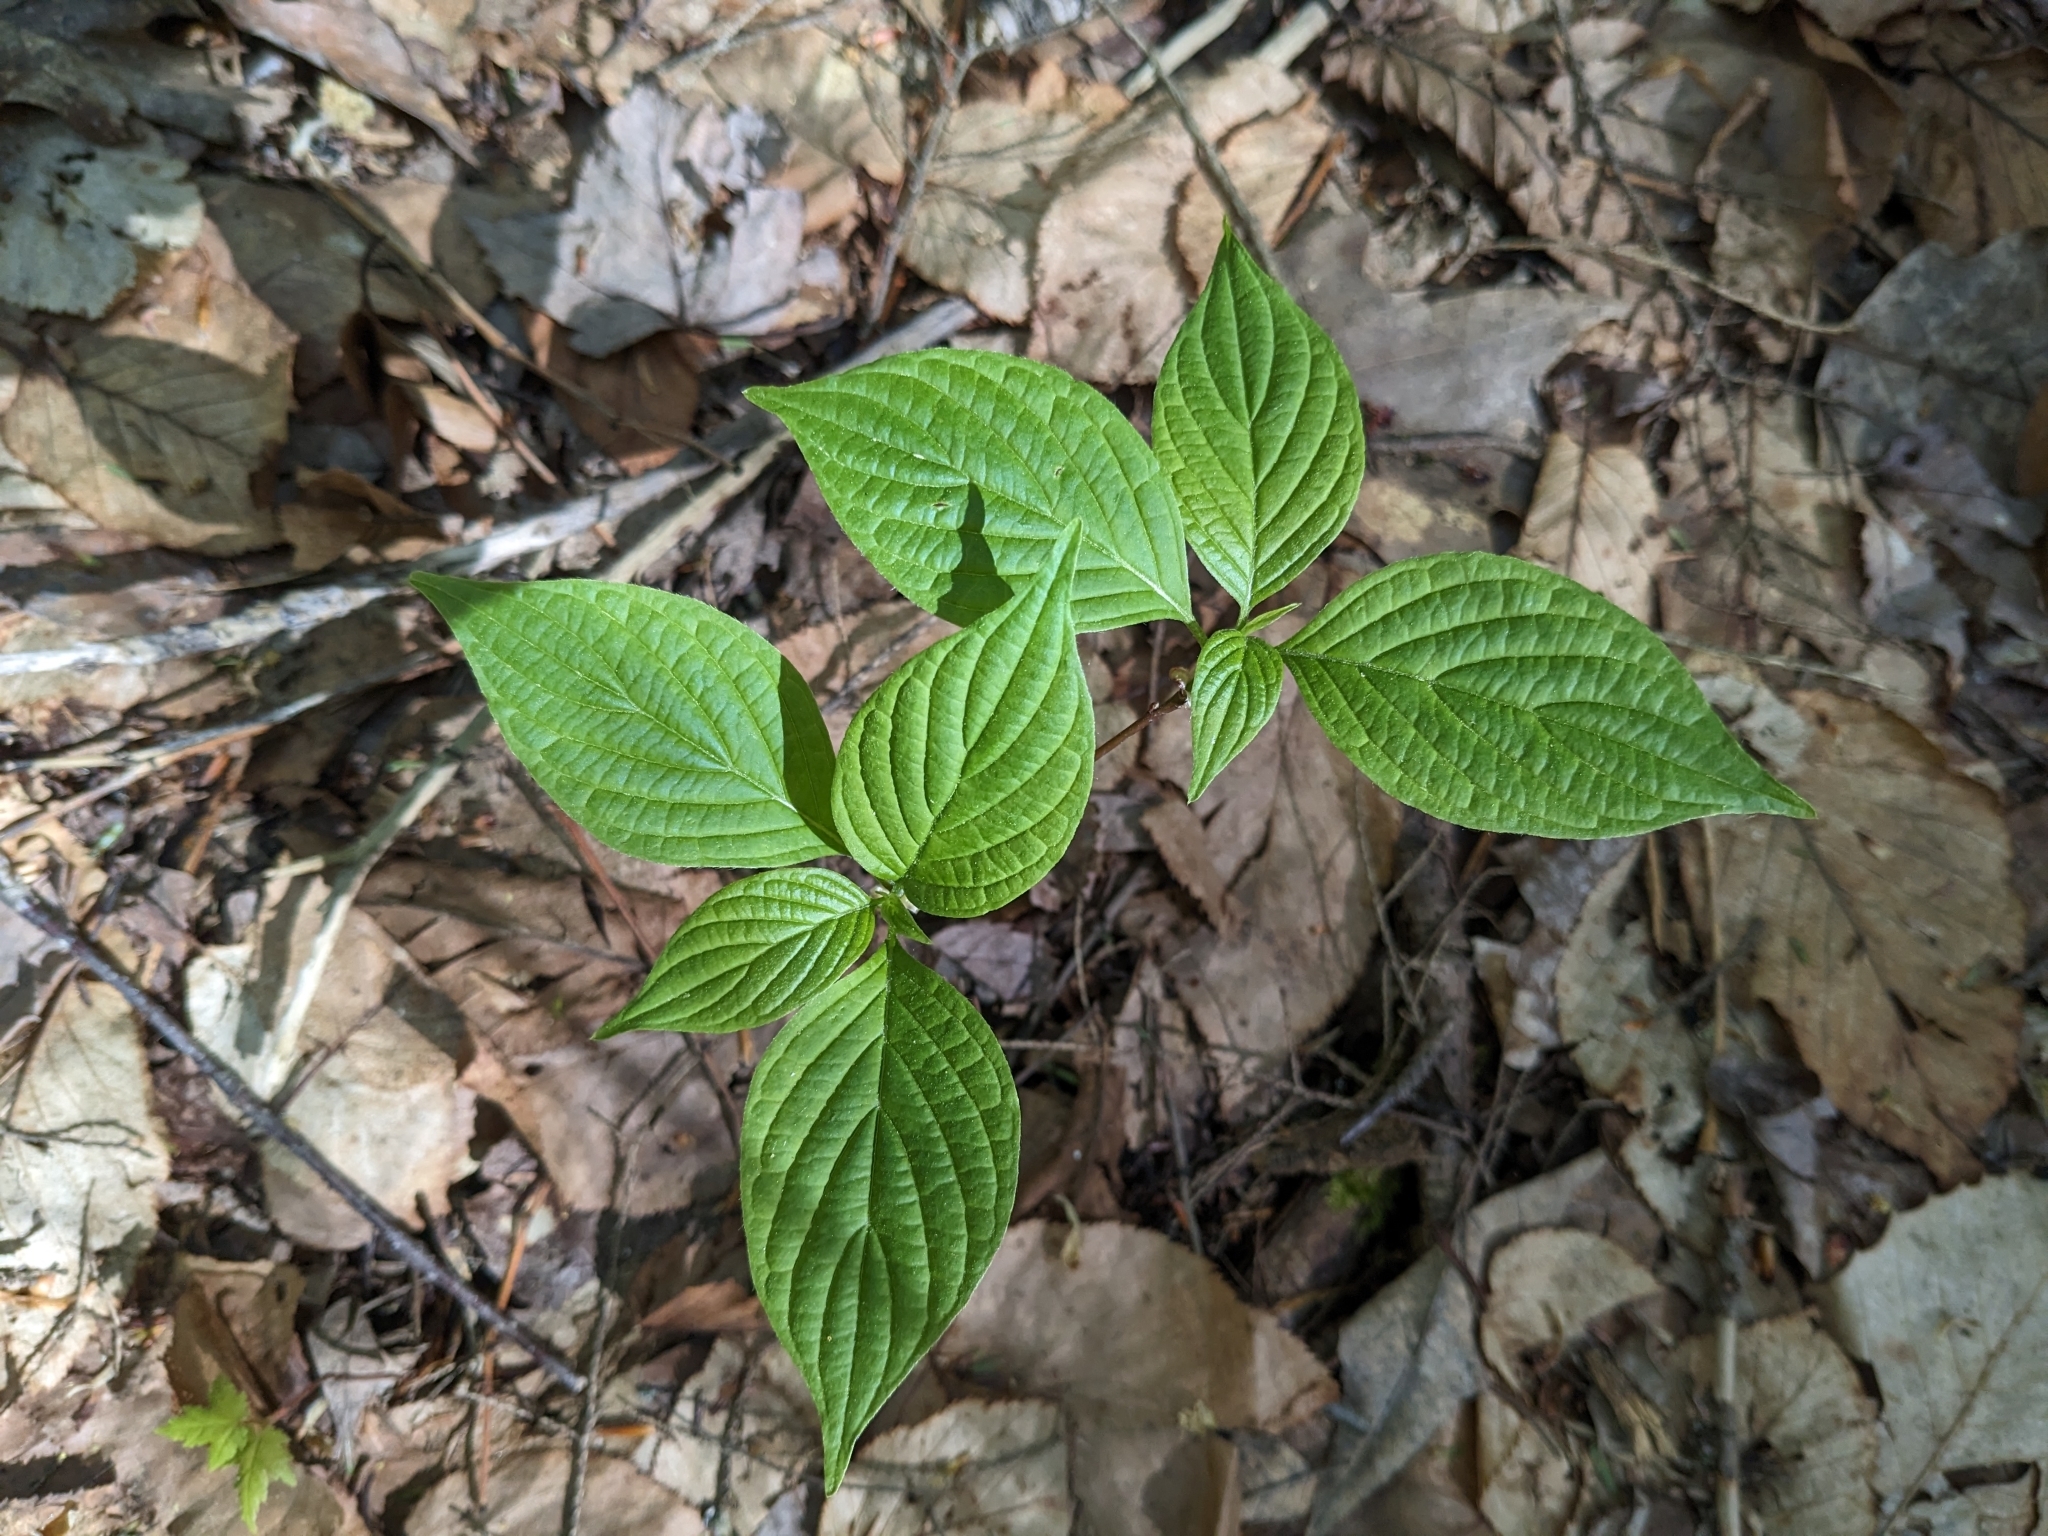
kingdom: Plantae
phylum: Tracheophyta
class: Magnoliopsida
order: Cornales
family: Cornaceae
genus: Cornus
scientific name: Cornus alternifolia
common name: Pagoda dogwood
